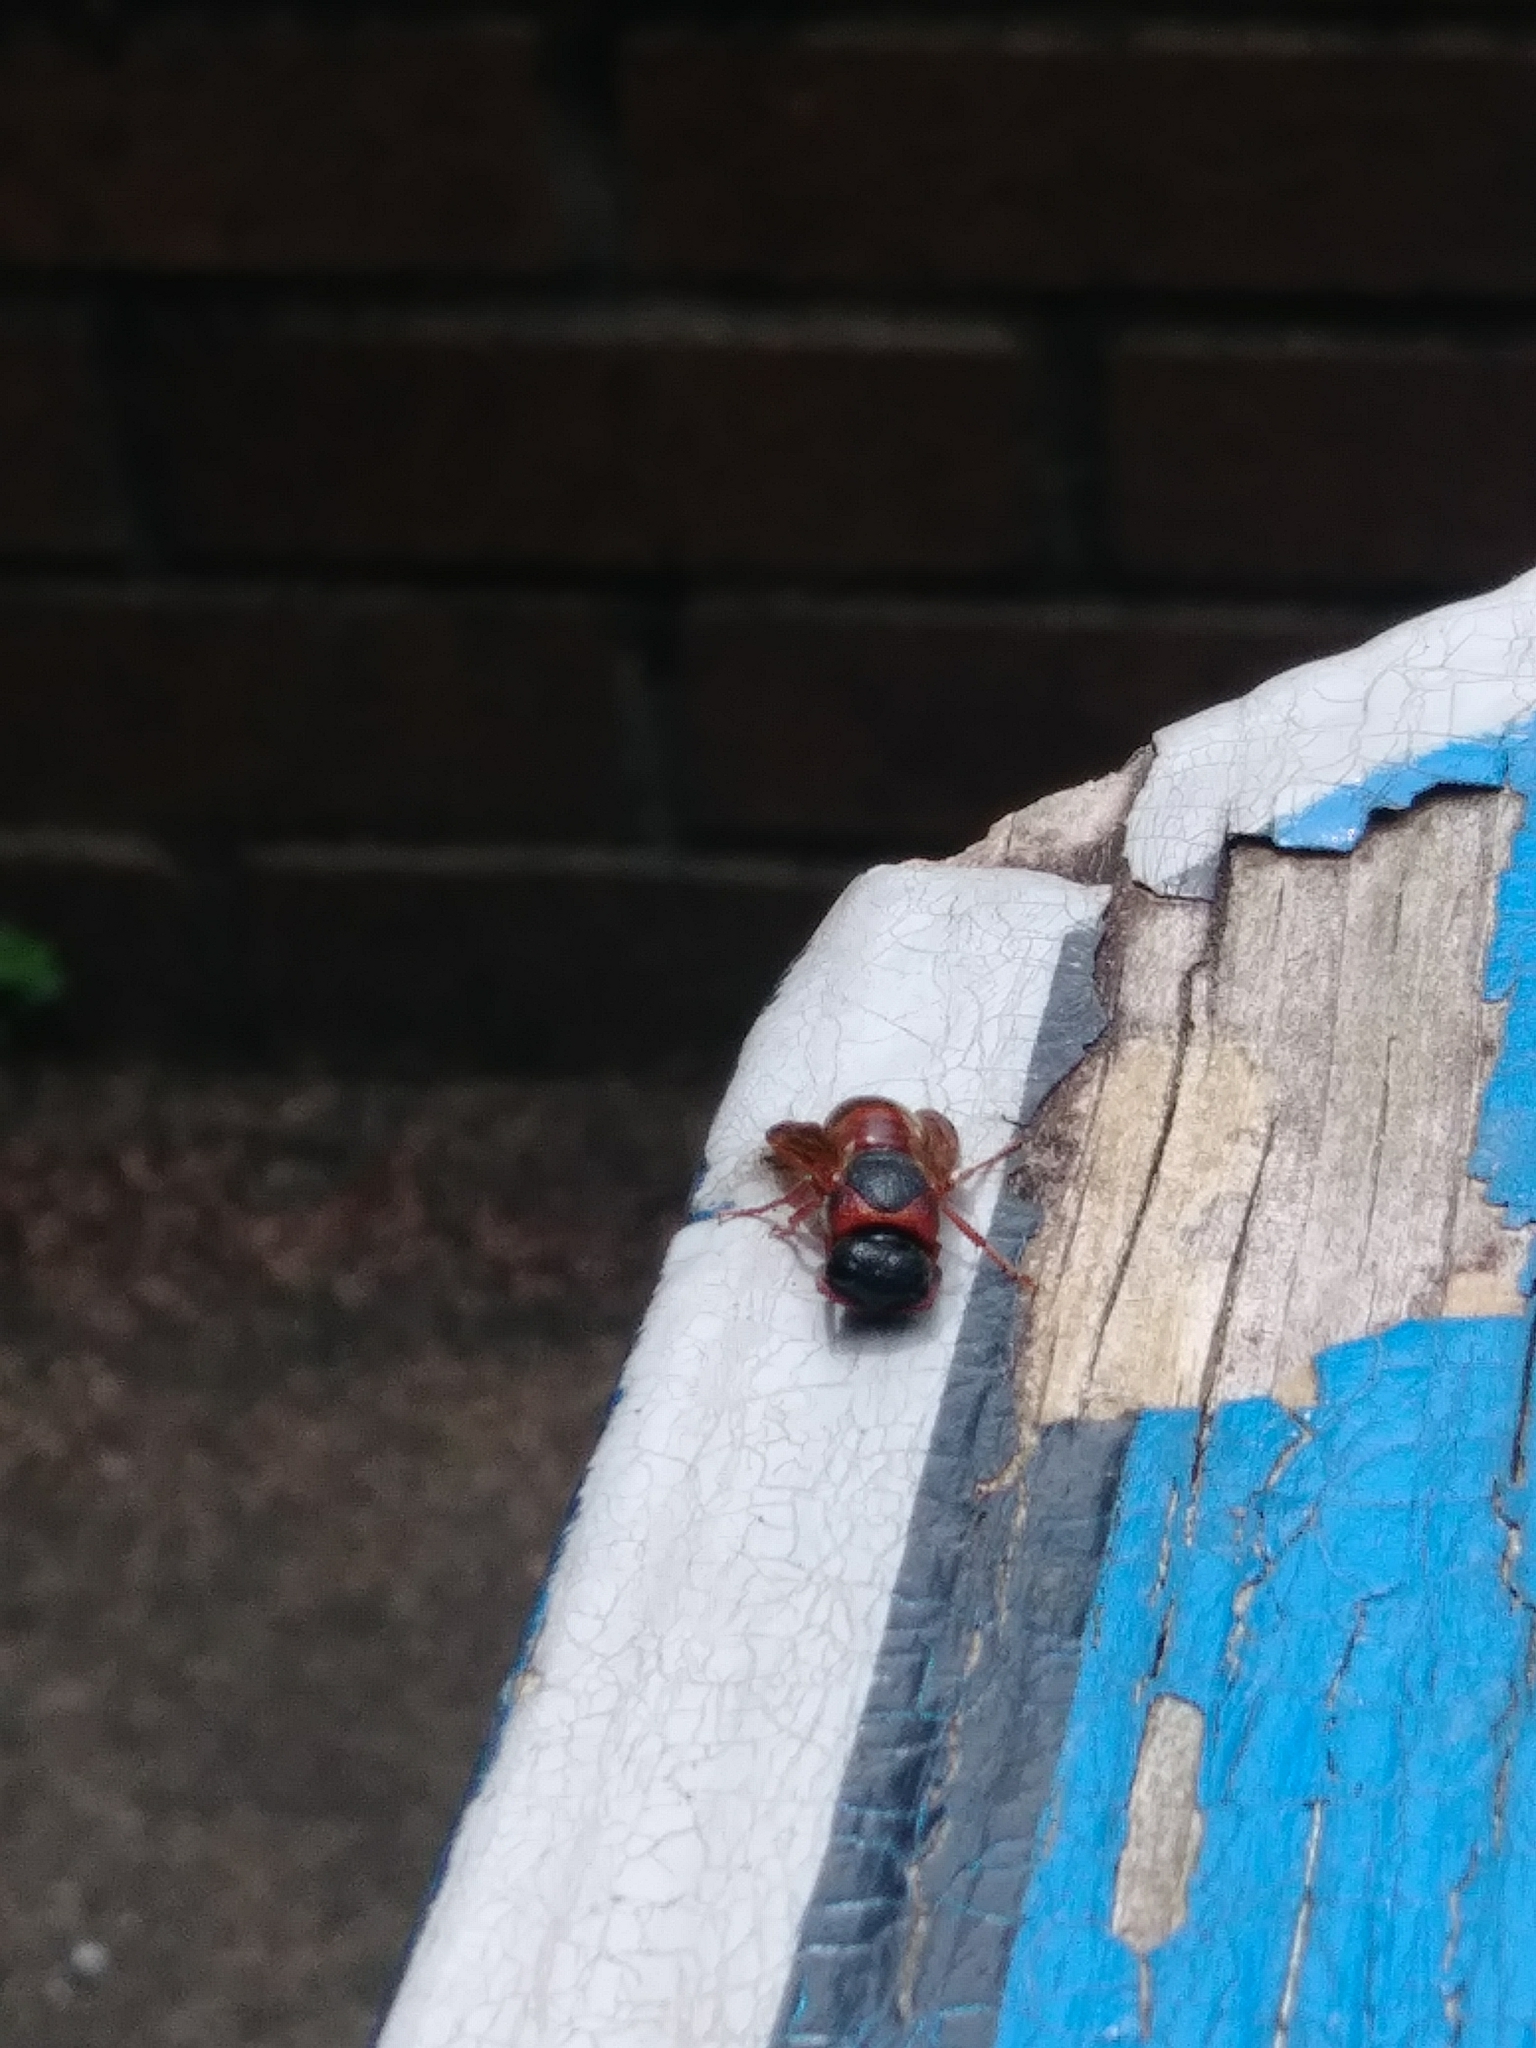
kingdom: Animalia
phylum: Arthropoda
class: Insecta
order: Hymenoptera
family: Eumenidae
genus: Pachodynerus
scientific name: Pachodynerus erynnis
